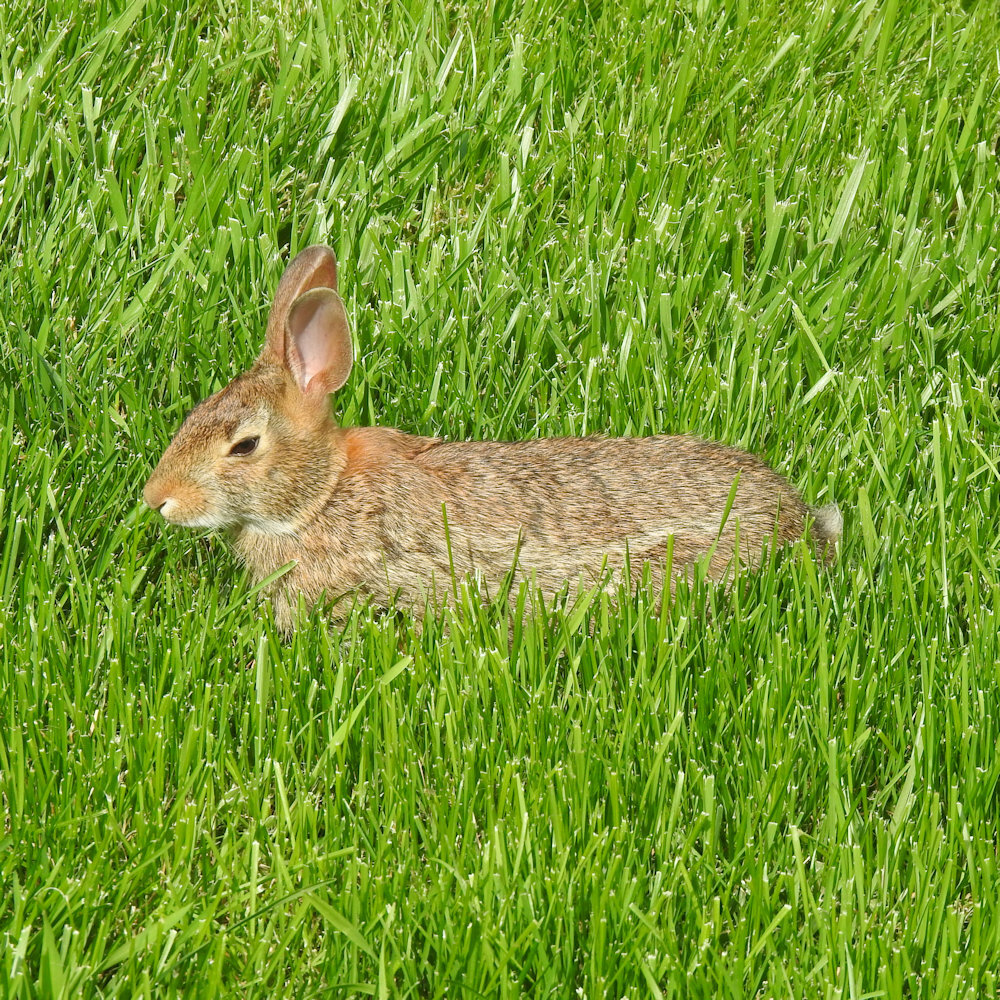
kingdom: Animalia
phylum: Chordata
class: Mammalia
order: Lagomorpha
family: Leporidae
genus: Sylvilagus
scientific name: Sylvilagus floridanus
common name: Eastern cottontail
